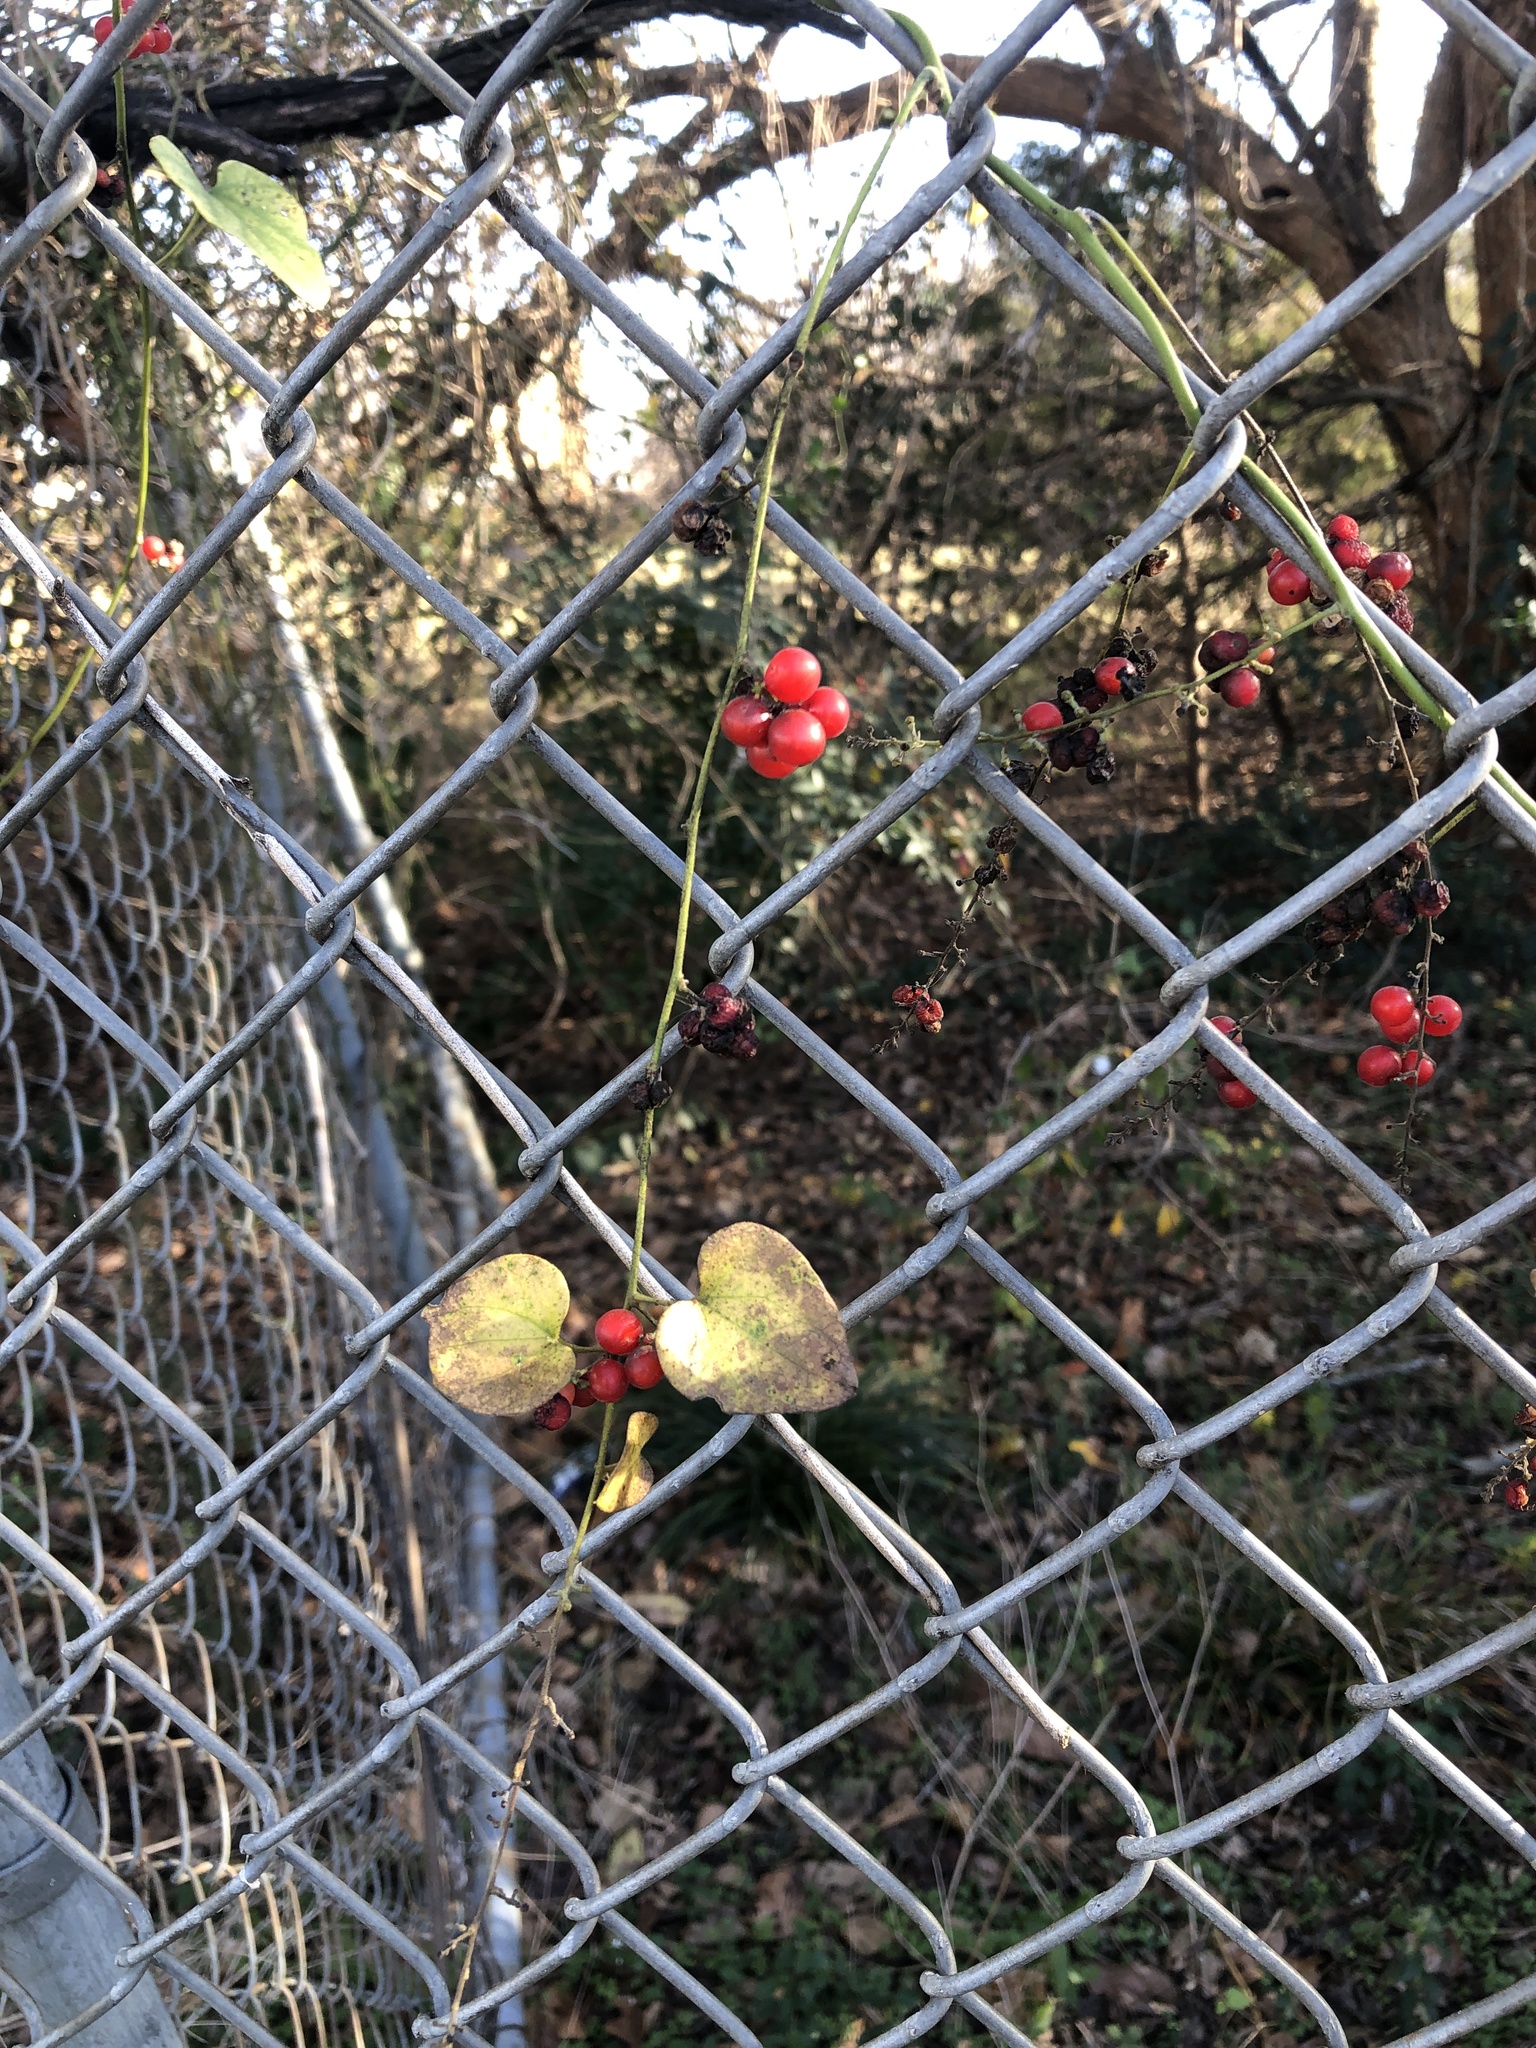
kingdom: Plantae
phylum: Tracheophyta
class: Magnoliopsida
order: Ranunculales
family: Menispermaceae
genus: Cocculus
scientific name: Cocculus carolinus
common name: Carolina moonseed
